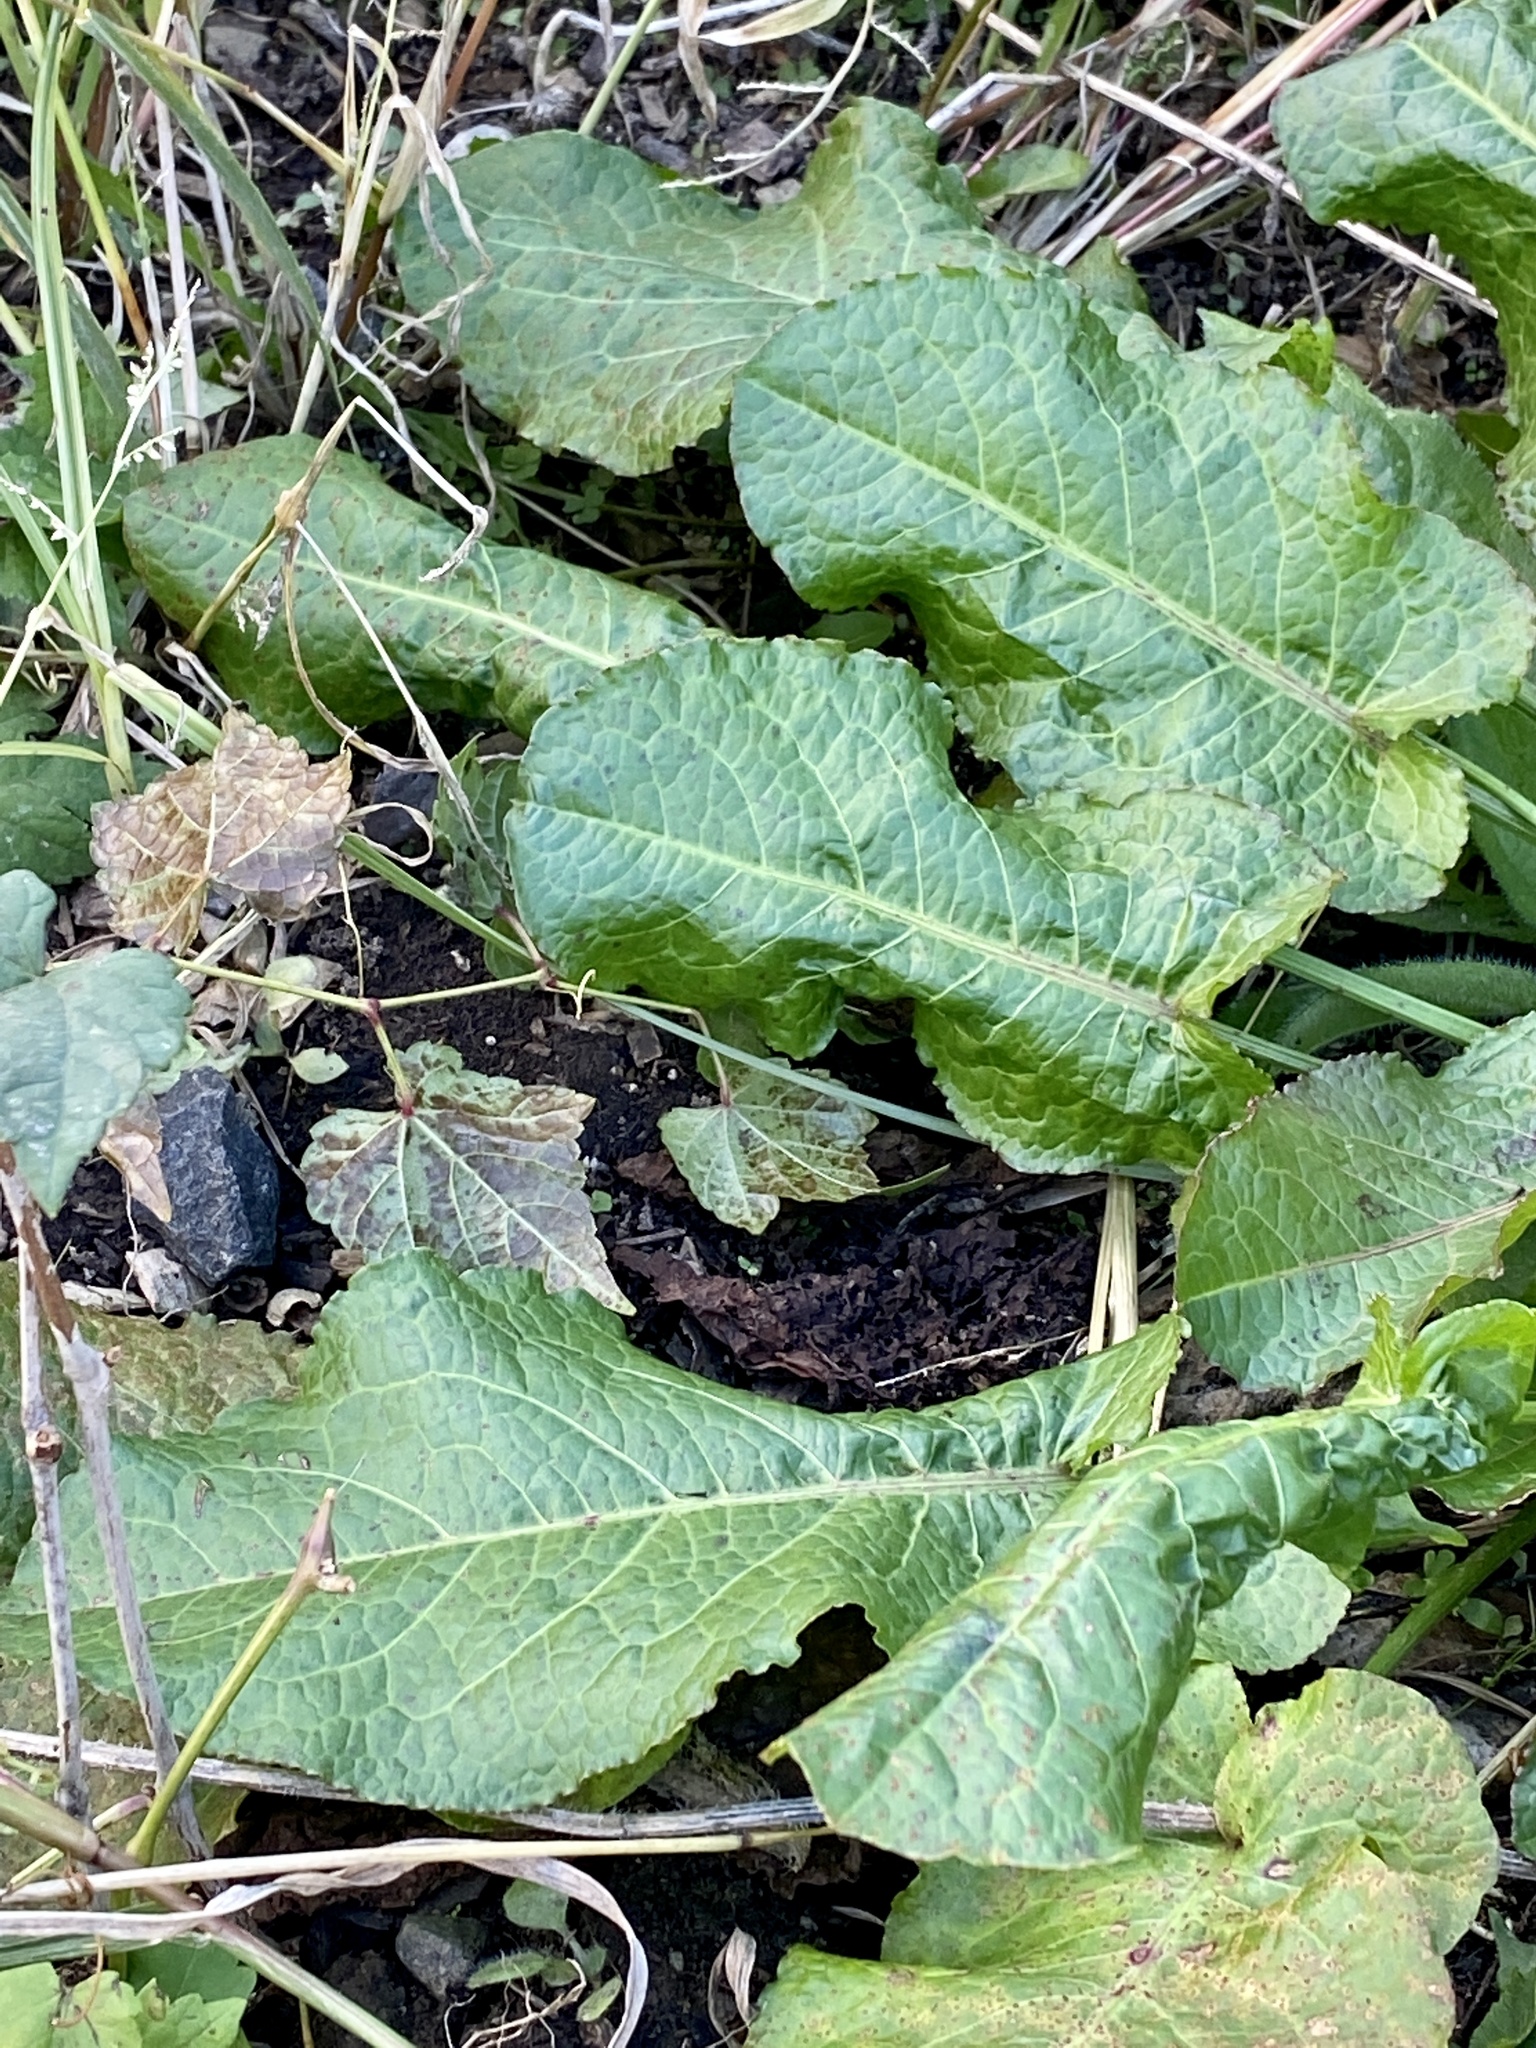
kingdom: Plantae
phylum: Tracheophyta
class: Magnoliopsida
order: Caryophyllales
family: Polygonaceae
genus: Rumex
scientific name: Rumex obtusifolius
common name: Bitter dock
